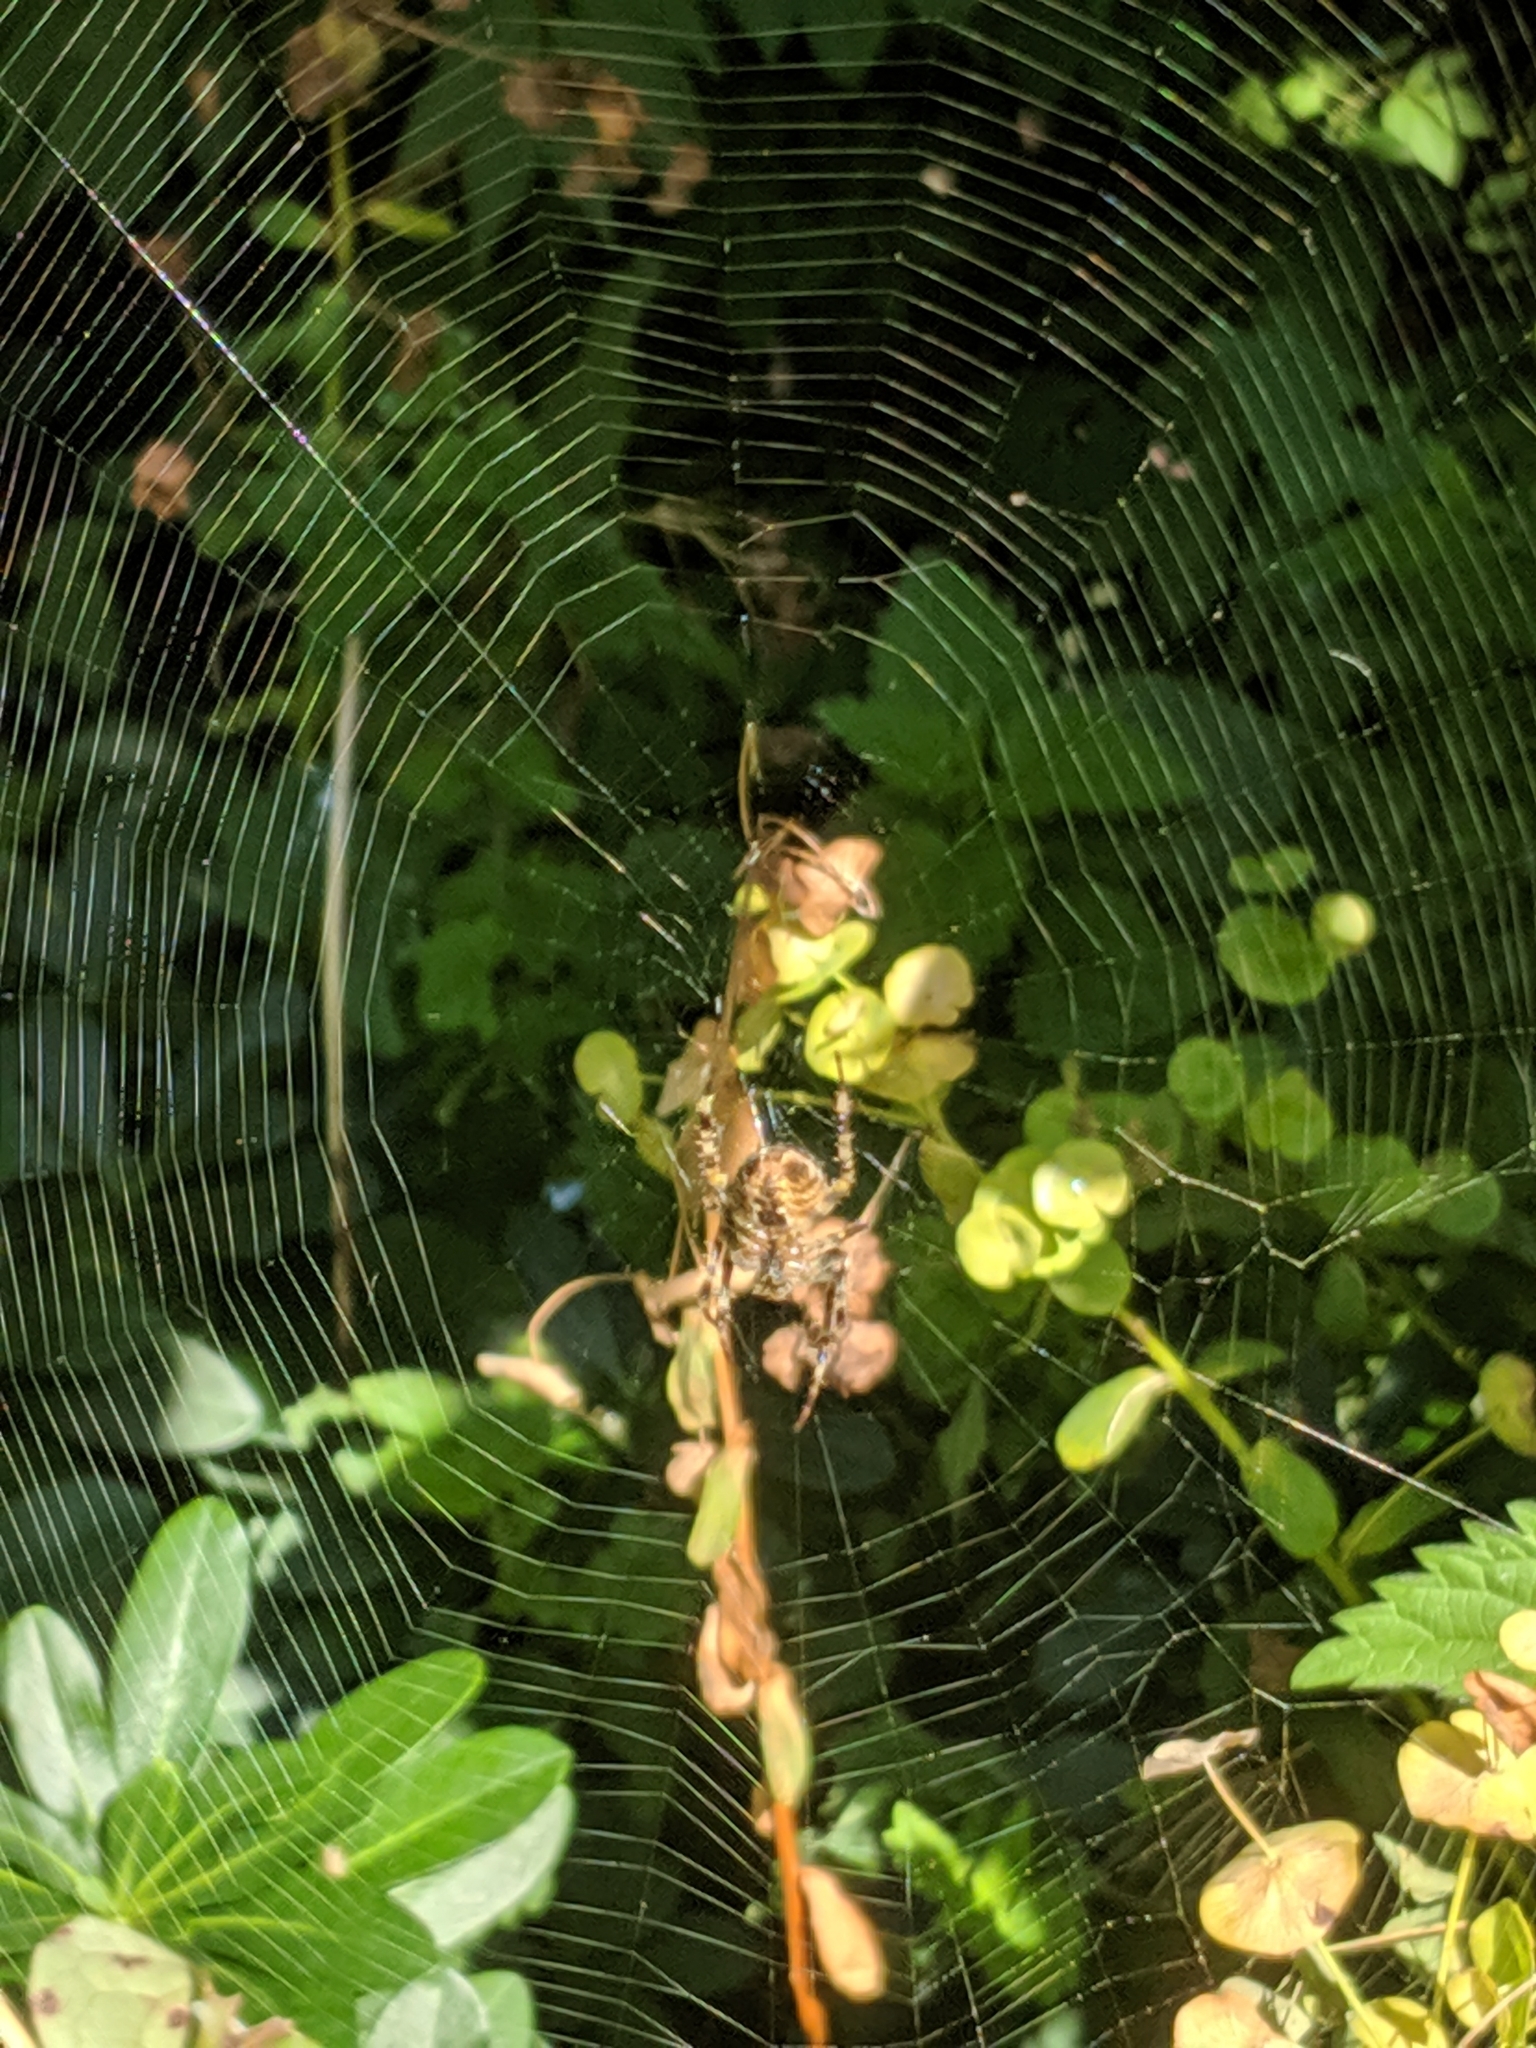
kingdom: Animalia
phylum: Arthropoda
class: Arachnida
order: Araneae
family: Araneidae
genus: Araneus
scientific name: Araneus diadematus
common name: Cross orbweaver
